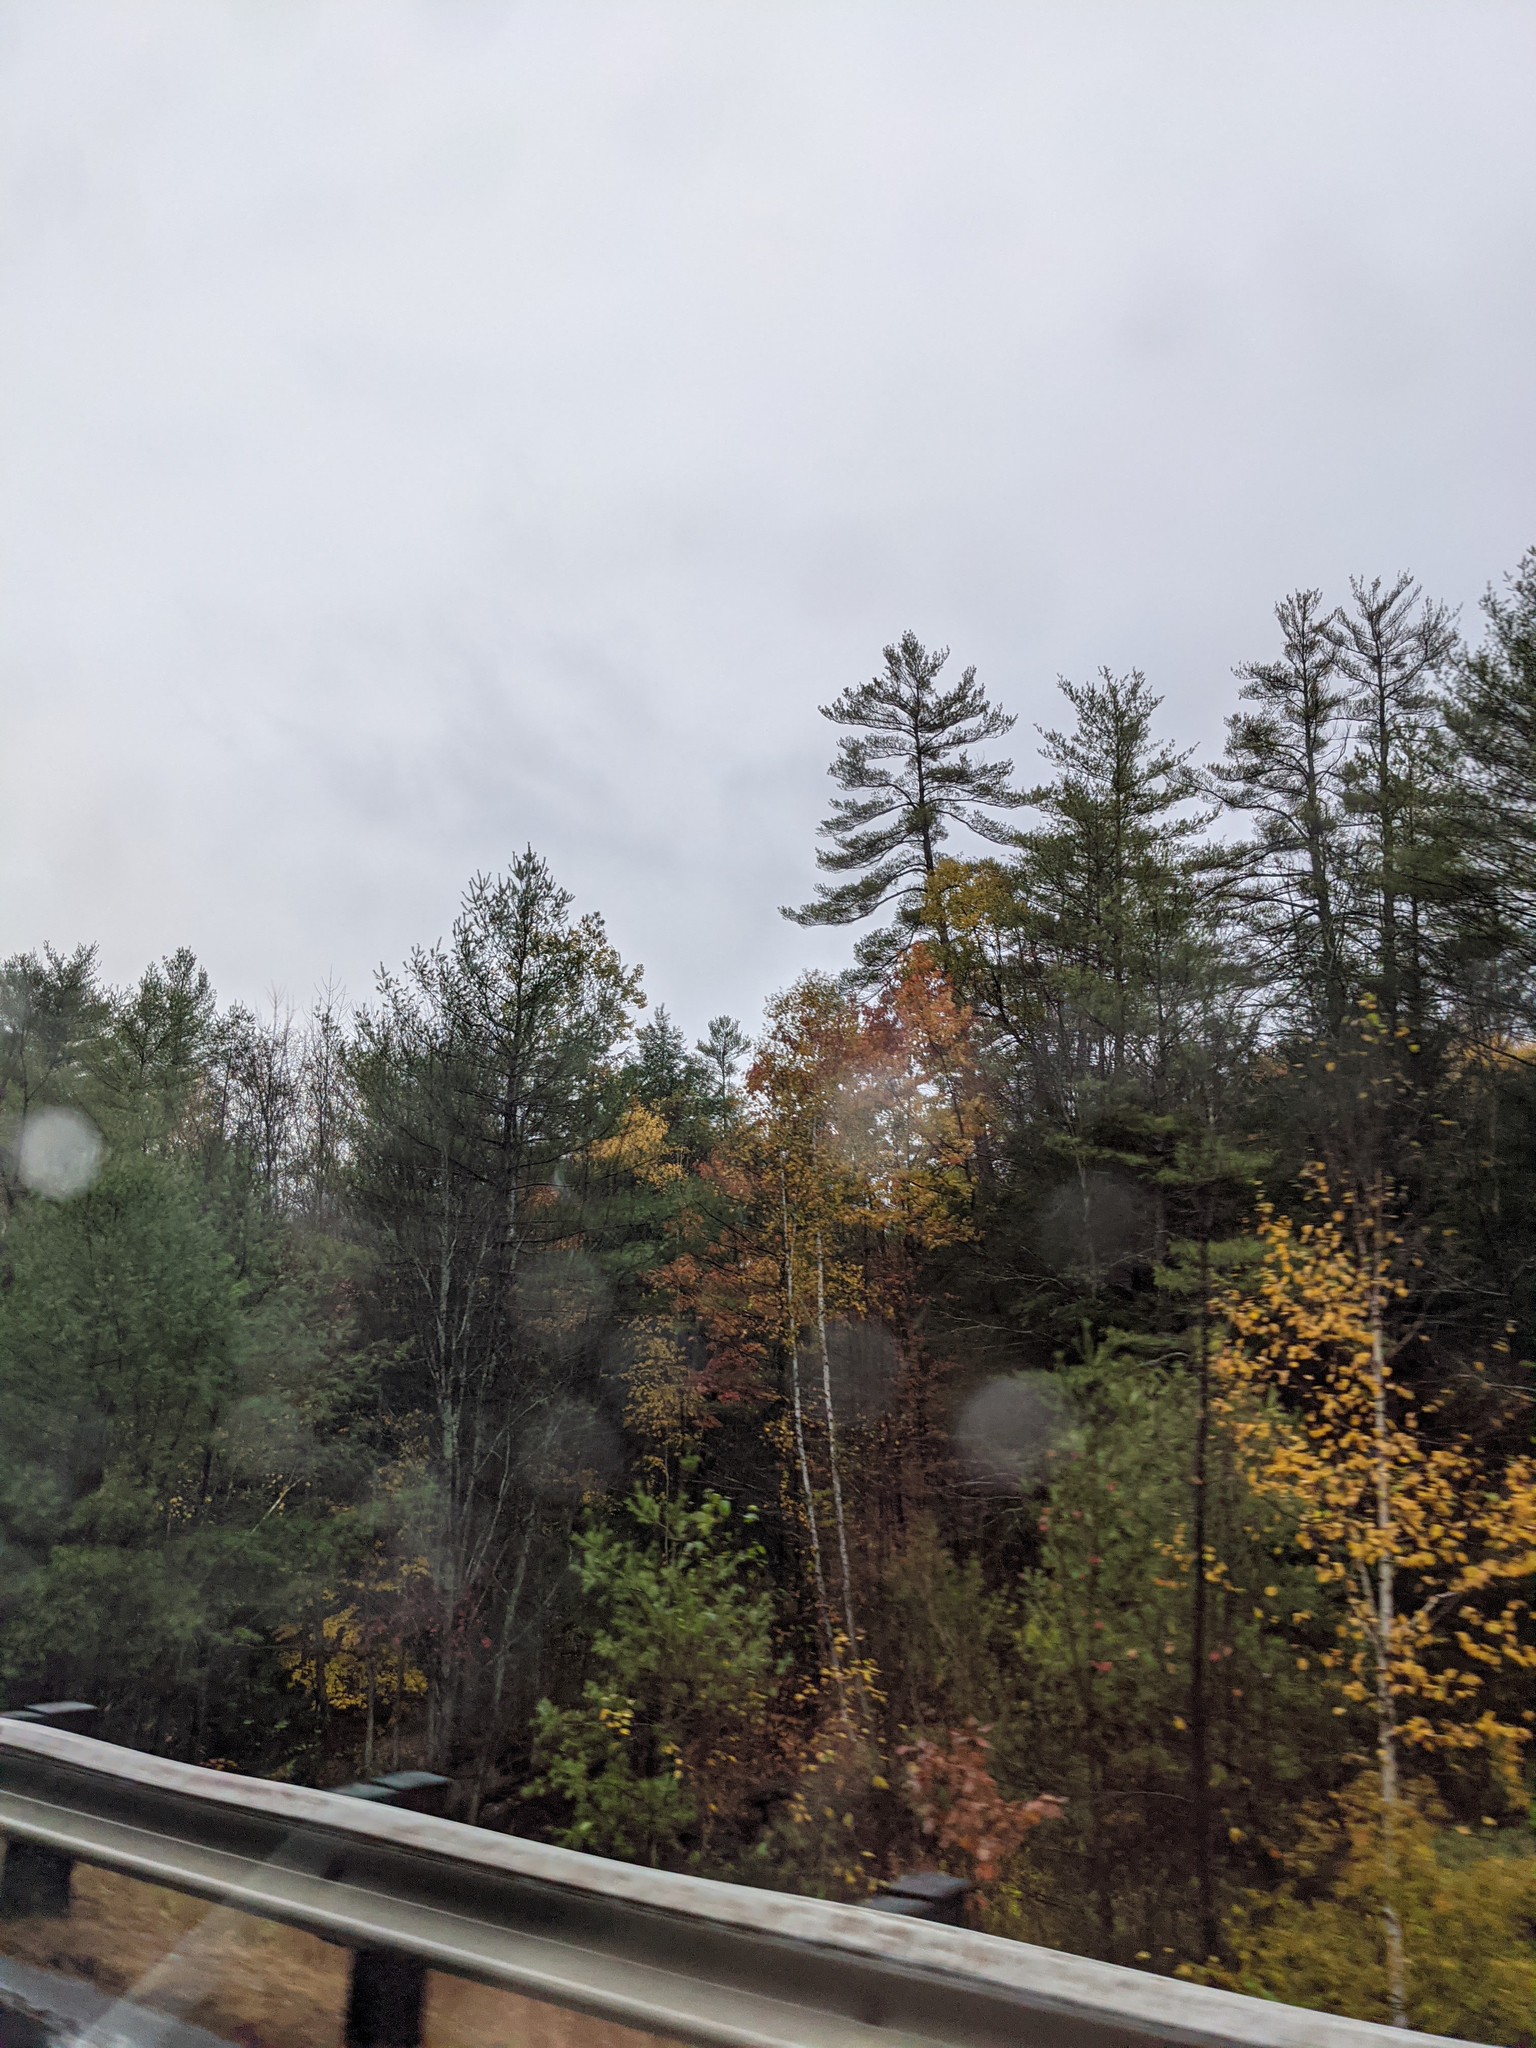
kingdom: Plantae
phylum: Tracheophyta
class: Pinopsida
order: Pinales
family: Pinaceae
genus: Pinus
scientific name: Pinus strobus
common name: Weymouth pine
